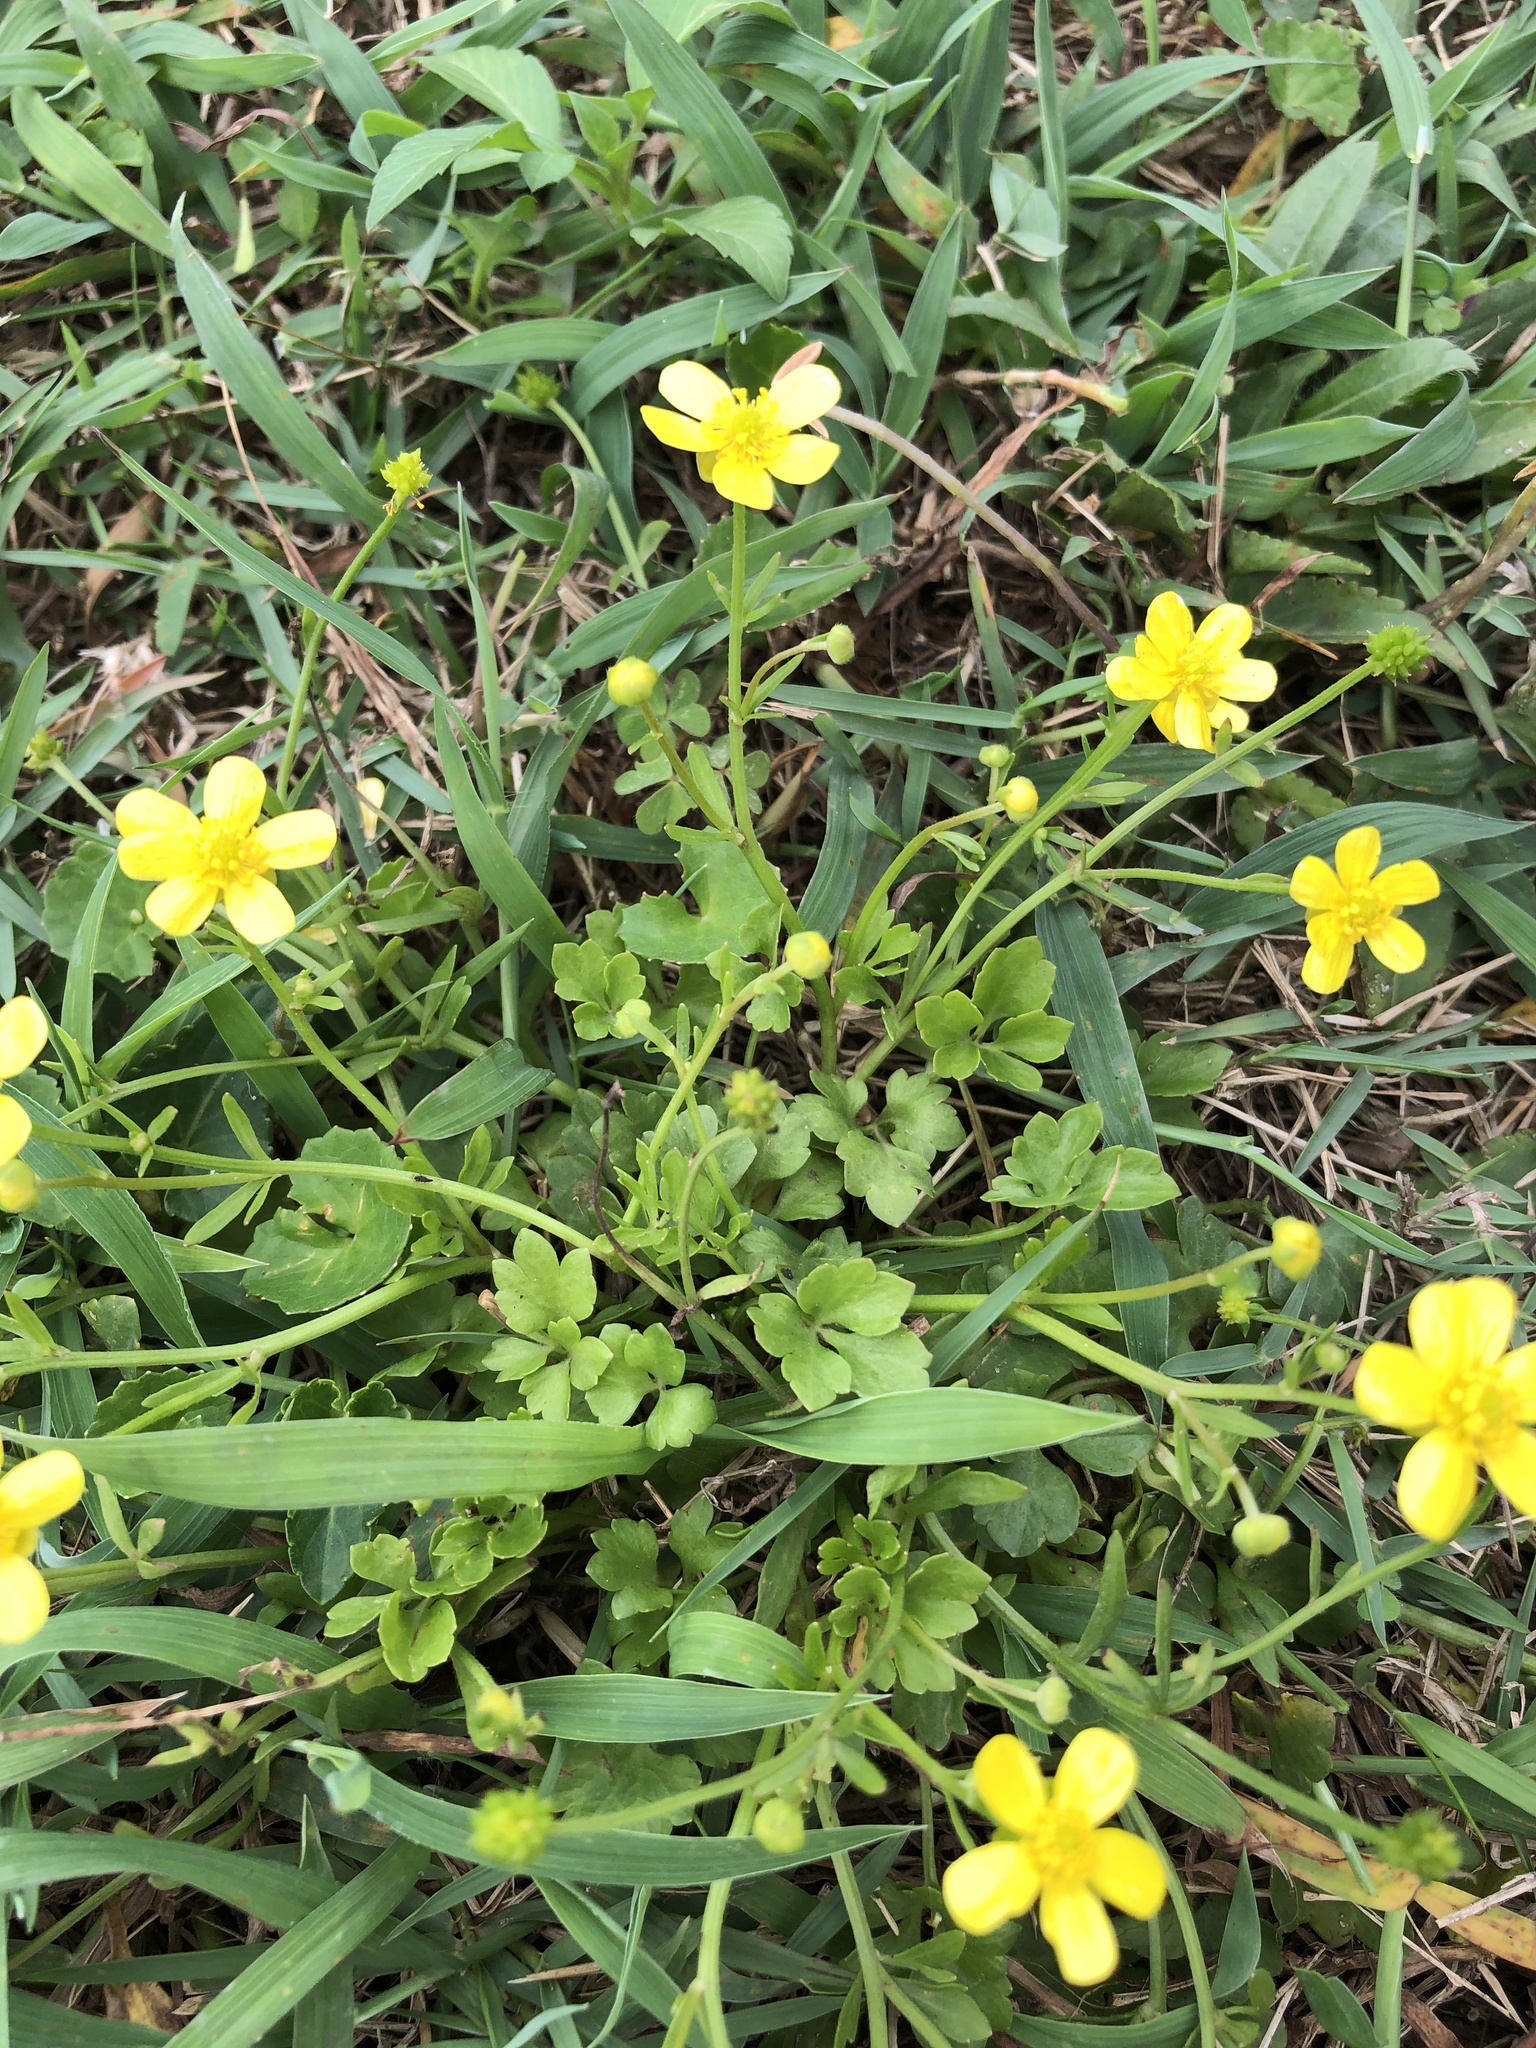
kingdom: Plantae
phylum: Tracheophyta
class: Magnoliopsida
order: Ranunculales
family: Ranunculaceae
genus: Ranunculus
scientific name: Ranunculus ternatus
